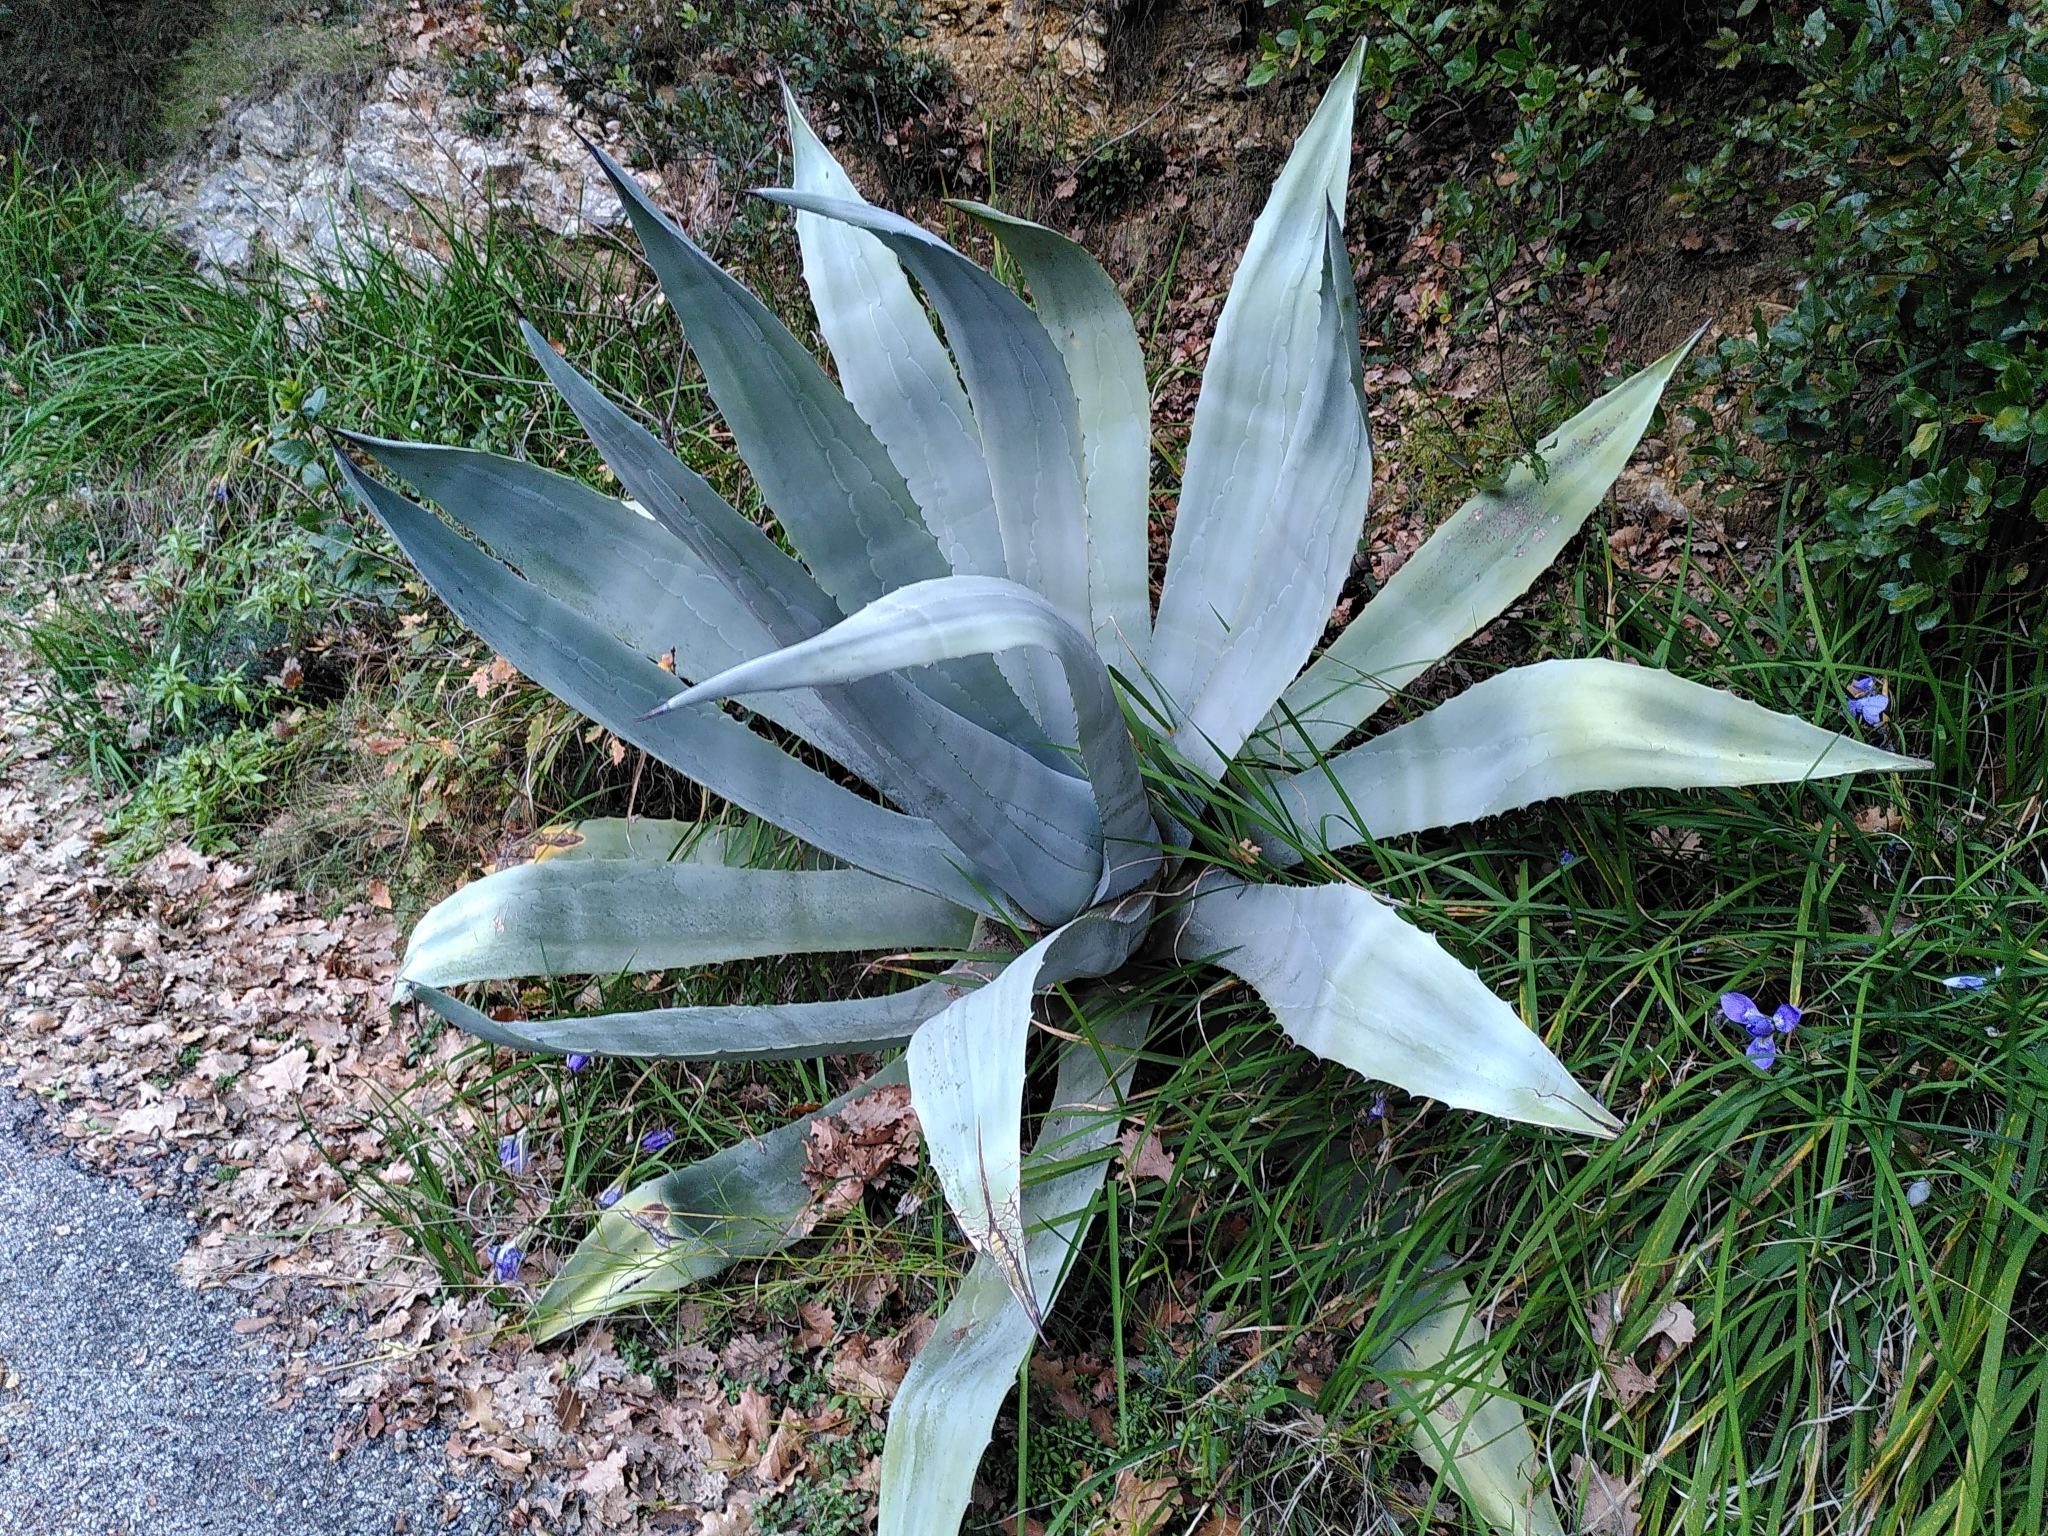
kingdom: Plantae
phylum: Tracheophyta
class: Liliopsida
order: Asparagales
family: Asparagaceae
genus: Agave
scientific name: Agave americana
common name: Centuryplant
